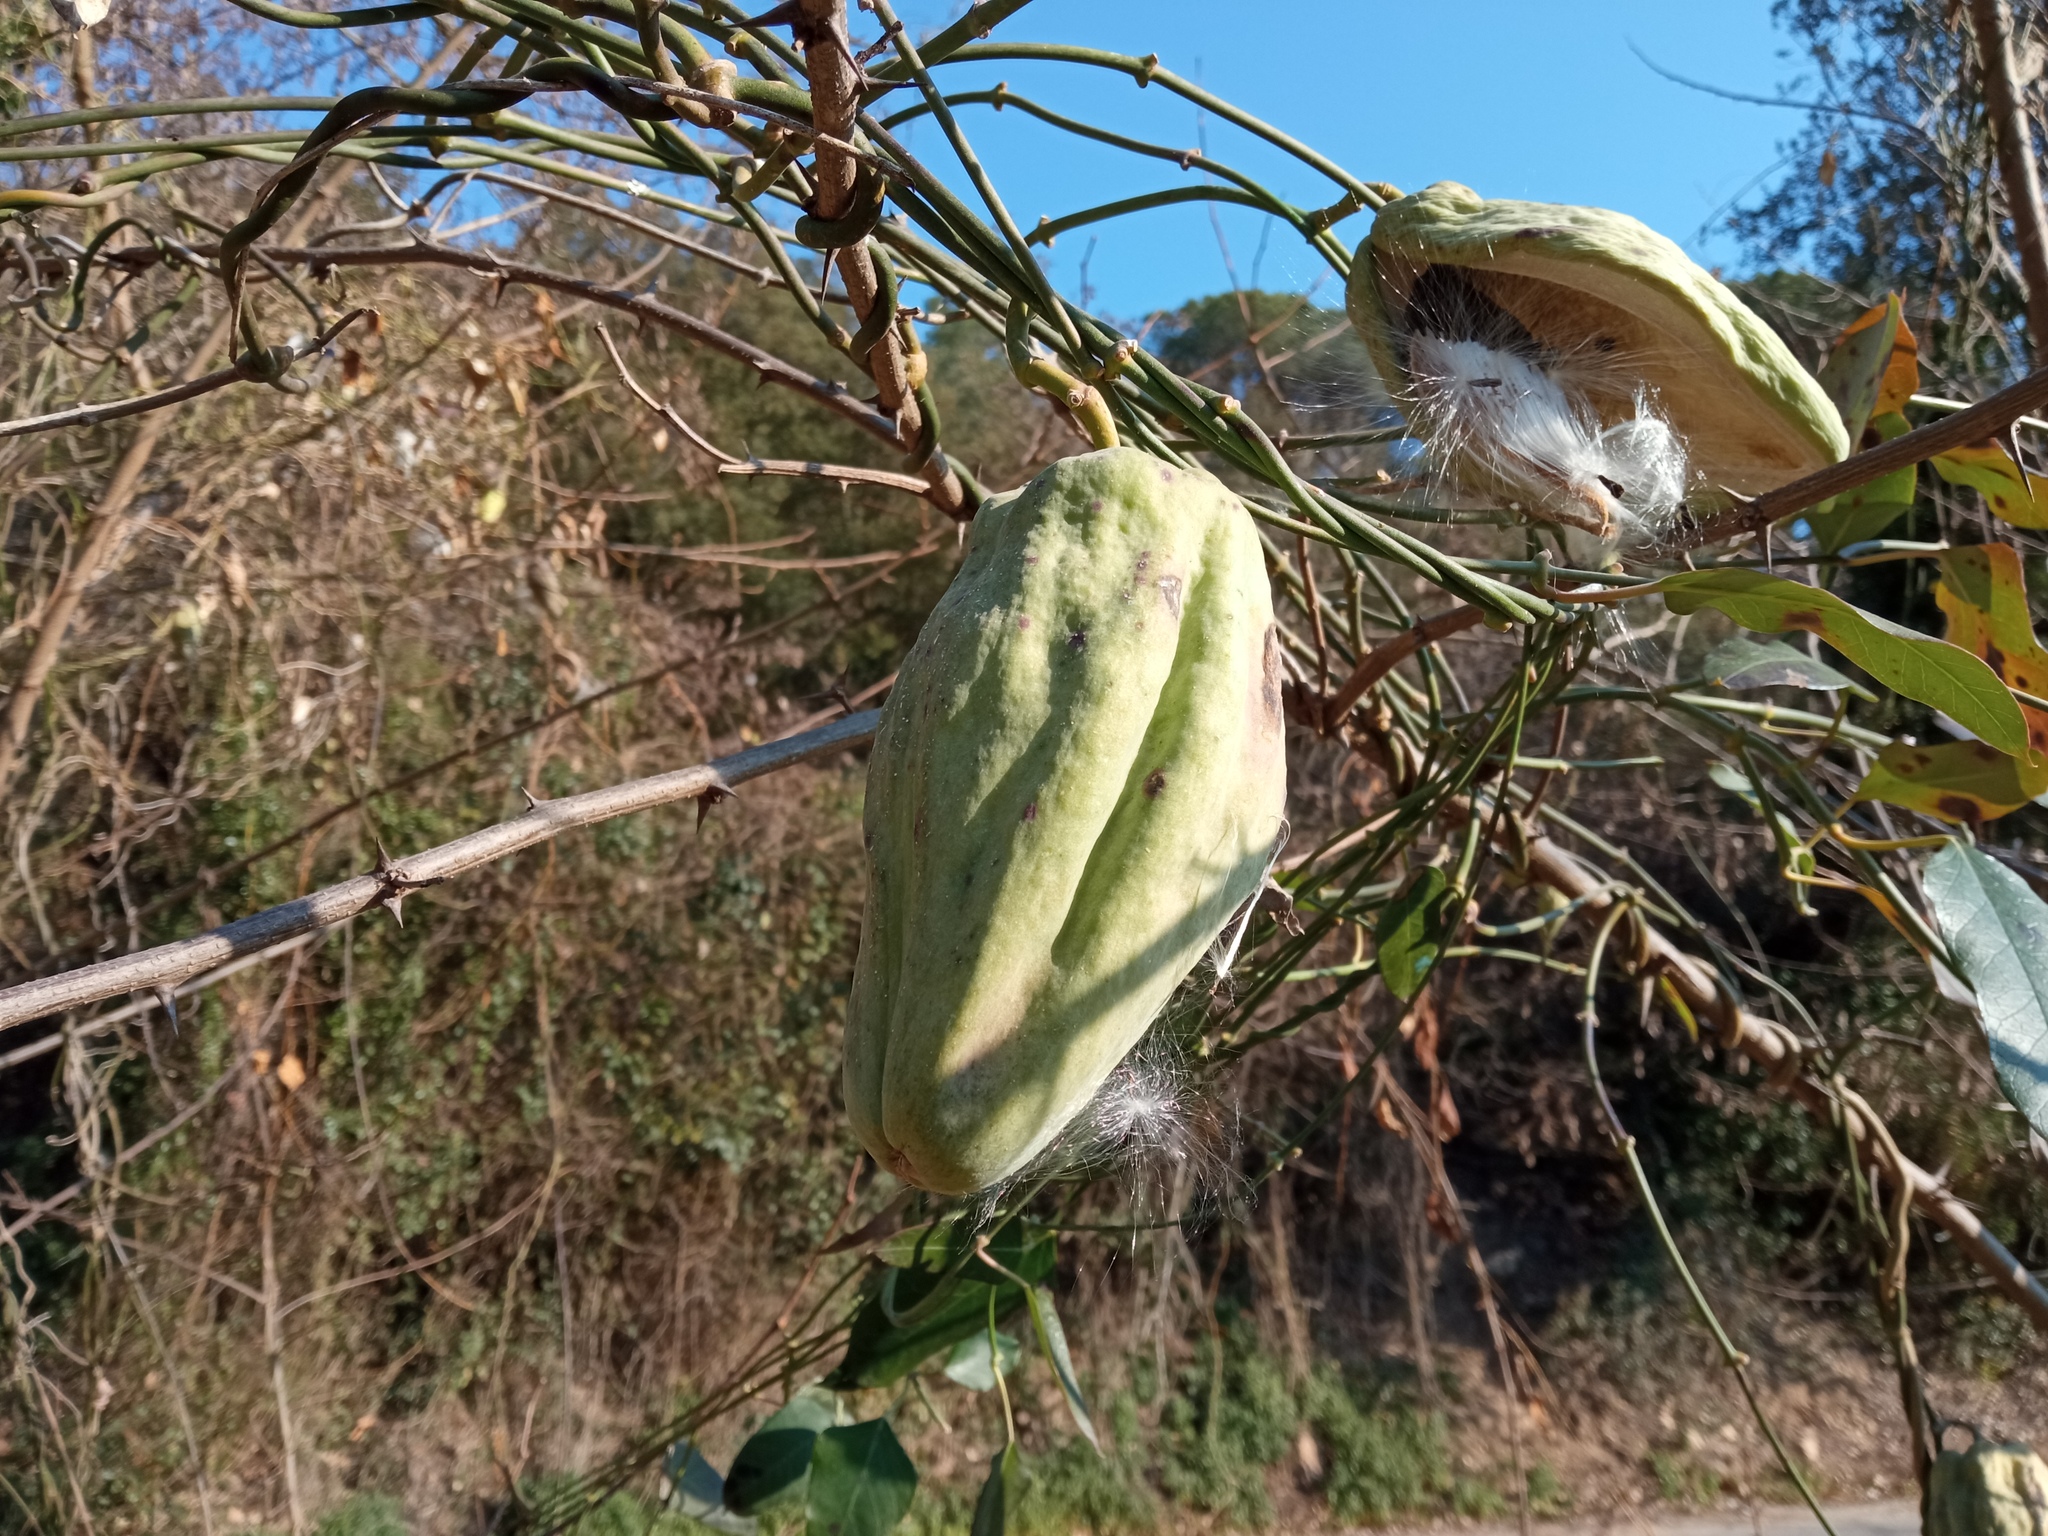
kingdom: Plantae
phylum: Tracheophyta
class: Magnoliopsida
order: Gentianales
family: Apocynaceae
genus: Araujia
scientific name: Araujia sericifera
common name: White bladderflower
